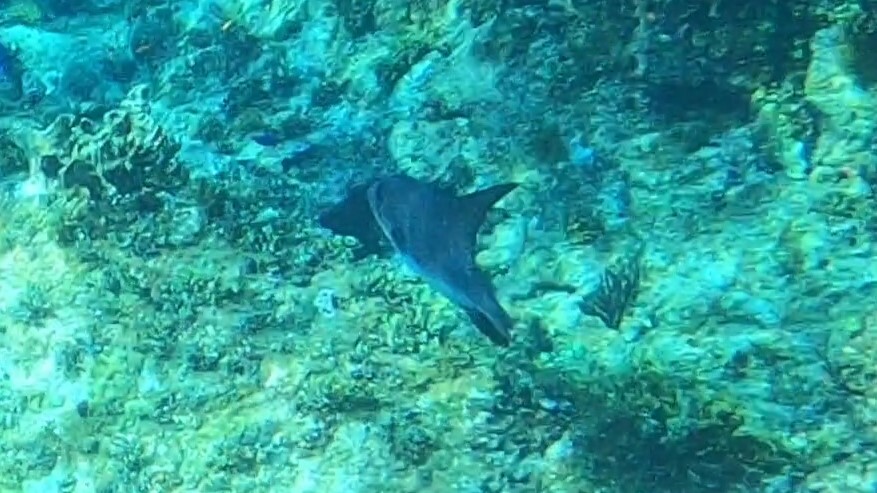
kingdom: Animalia
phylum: Chordata
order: Tetraodontiformes
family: Balistidae
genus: Canthidermis
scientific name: Canthidermis sufflamen
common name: Ocean triggerfish
